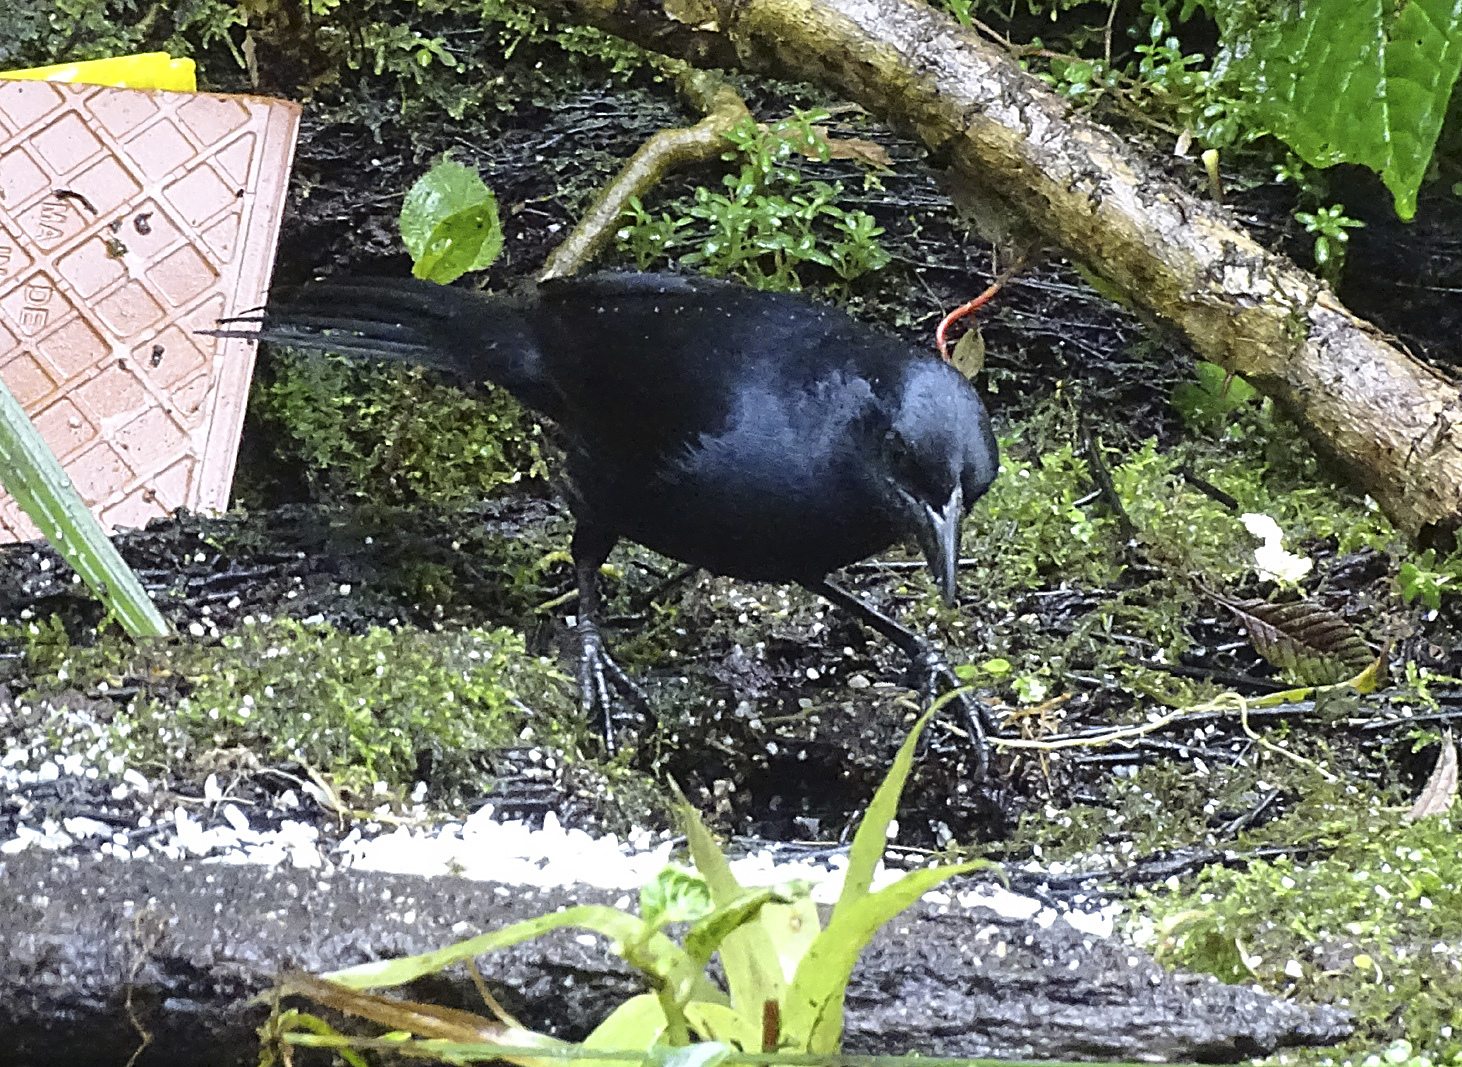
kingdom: Animalia
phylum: Chordata
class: Aves
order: Passeriformes
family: Icteridae
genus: Dives
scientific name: Dives warczewiczi
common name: Scrub blackbird
